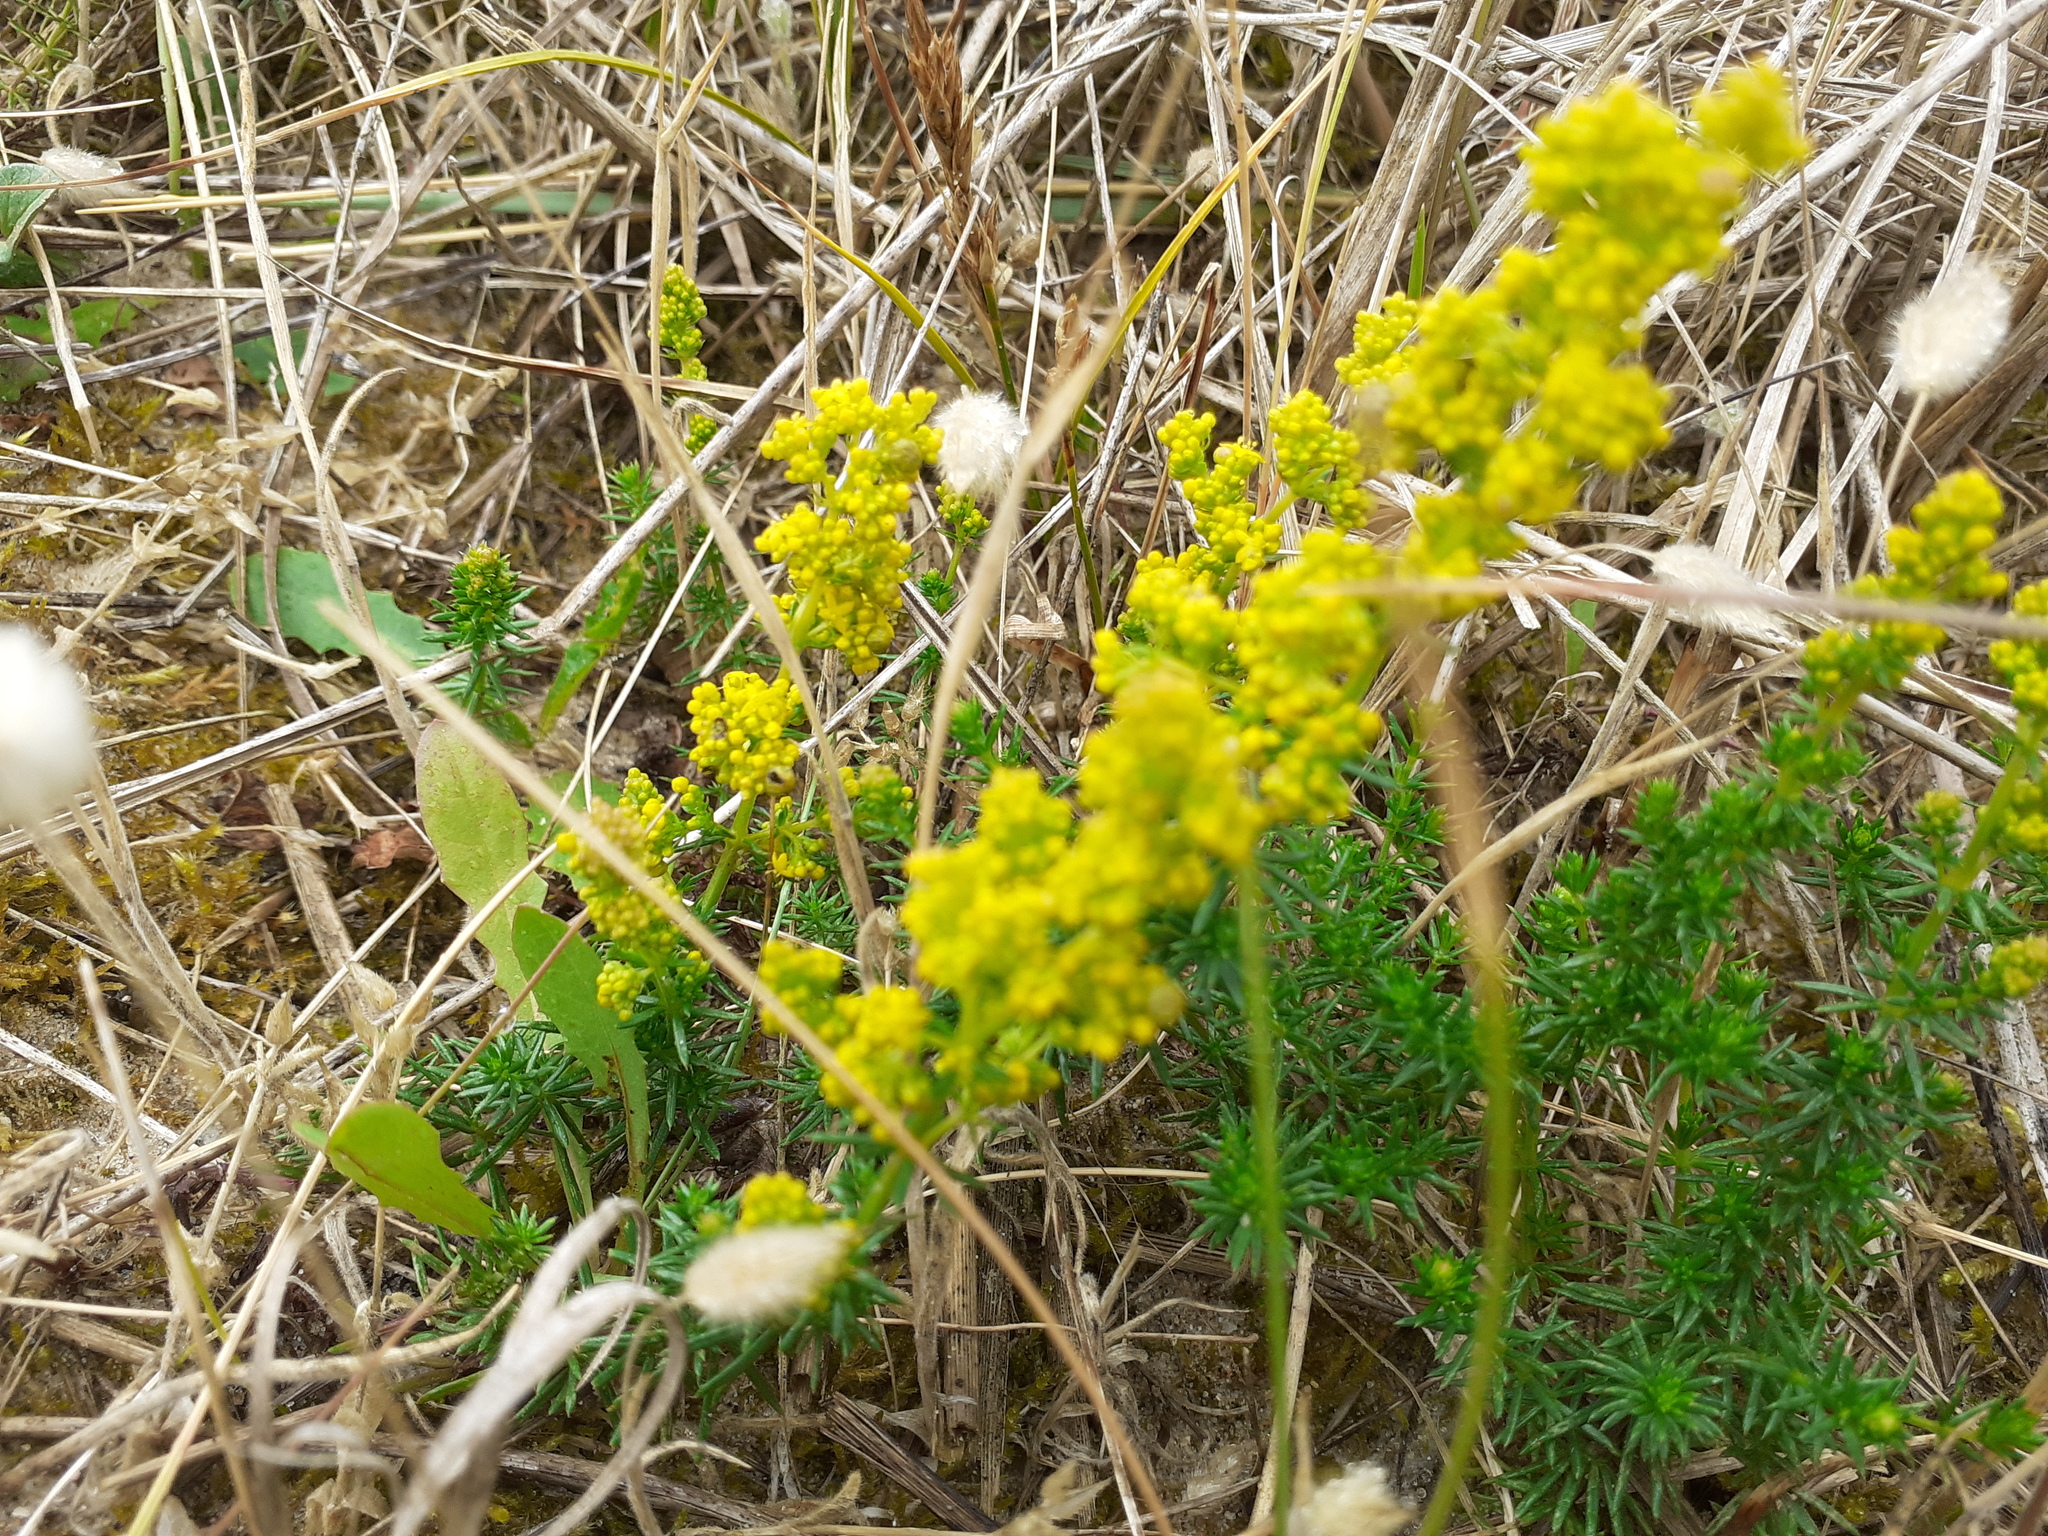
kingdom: Plantae
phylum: Tracheophyta
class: Magnoliopsida
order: Gentianales
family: Rubiaceae
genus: Galium
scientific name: Galium arenarium
